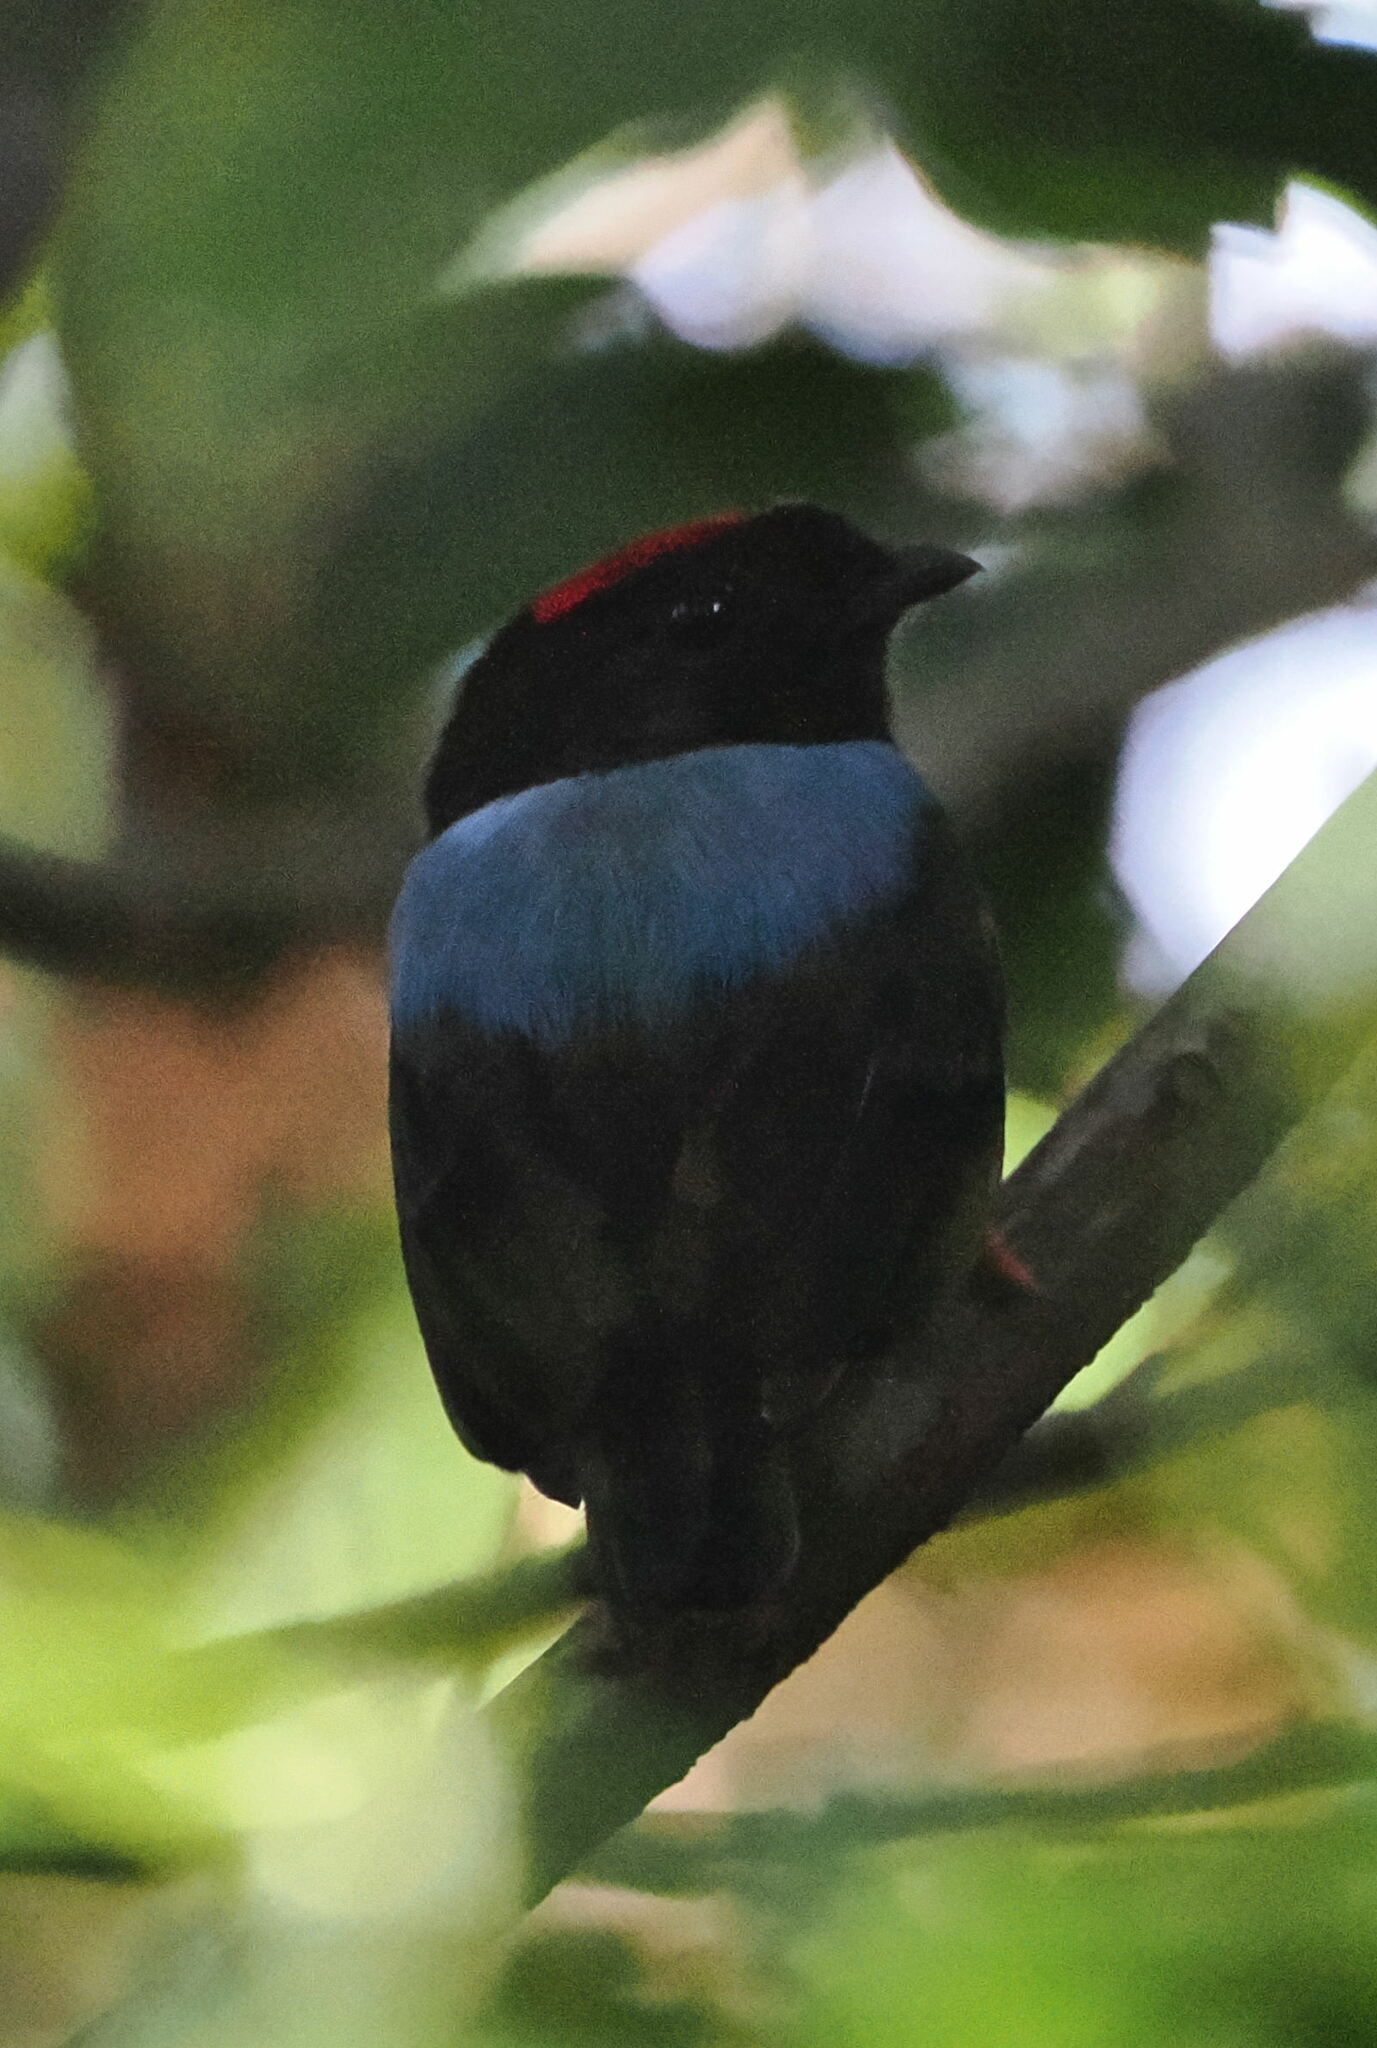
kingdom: Animalia
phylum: Chordata
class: Aves
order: Passeriformes
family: Pipridae
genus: Chiroxiphia
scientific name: Chiroxiphia pareola
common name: Blue-backed manakin
